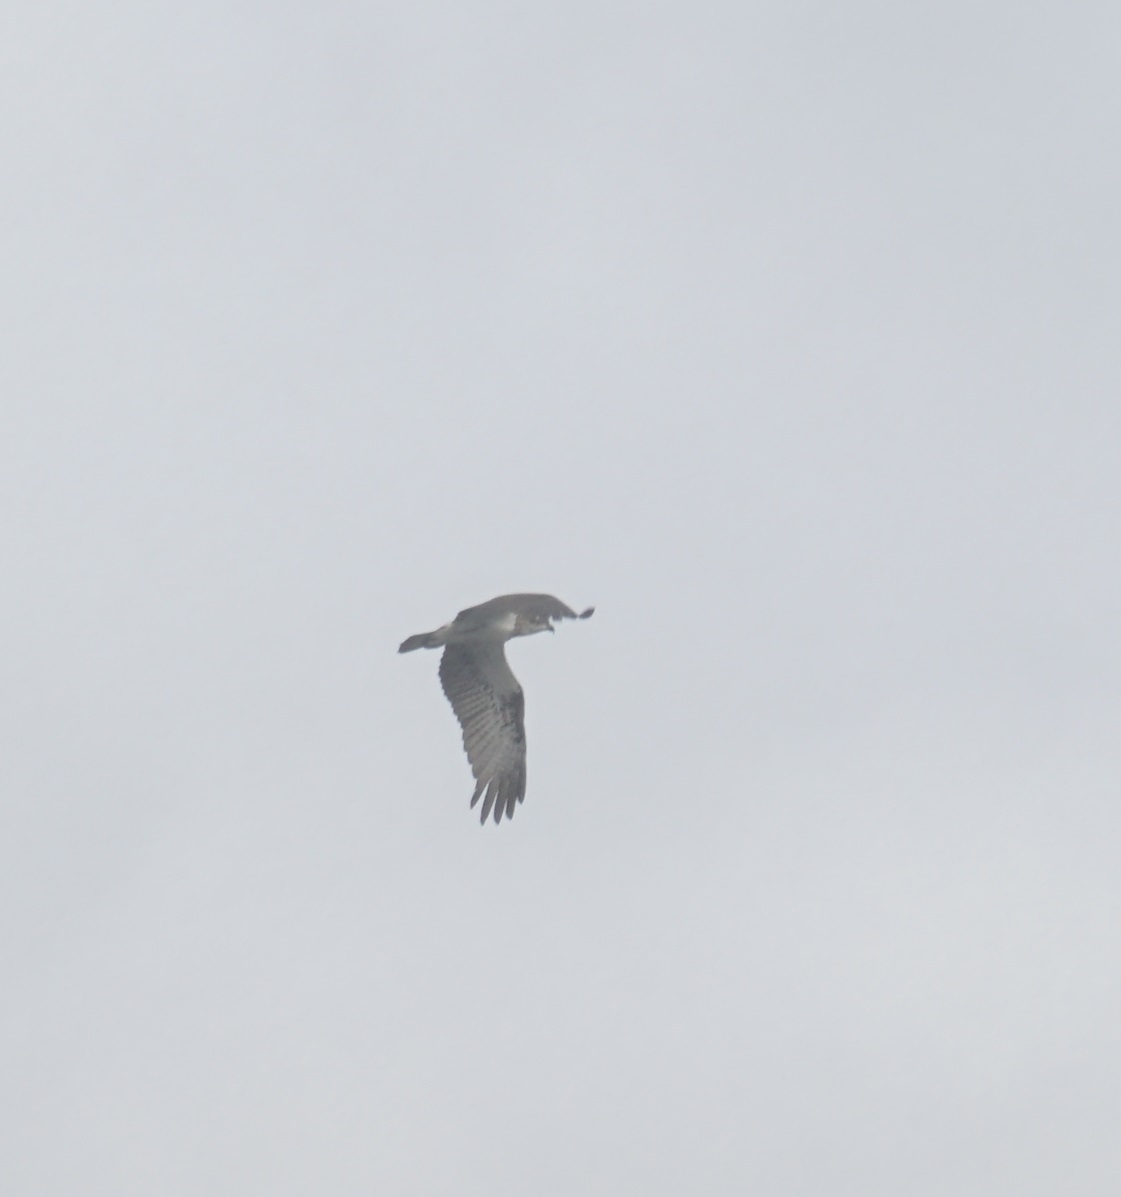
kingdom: Animalia
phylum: Chordata
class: Aves
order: Accipitriformes
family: Pandionidae
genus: Pandion
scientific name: Pandion haliaetus
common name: Osprey
